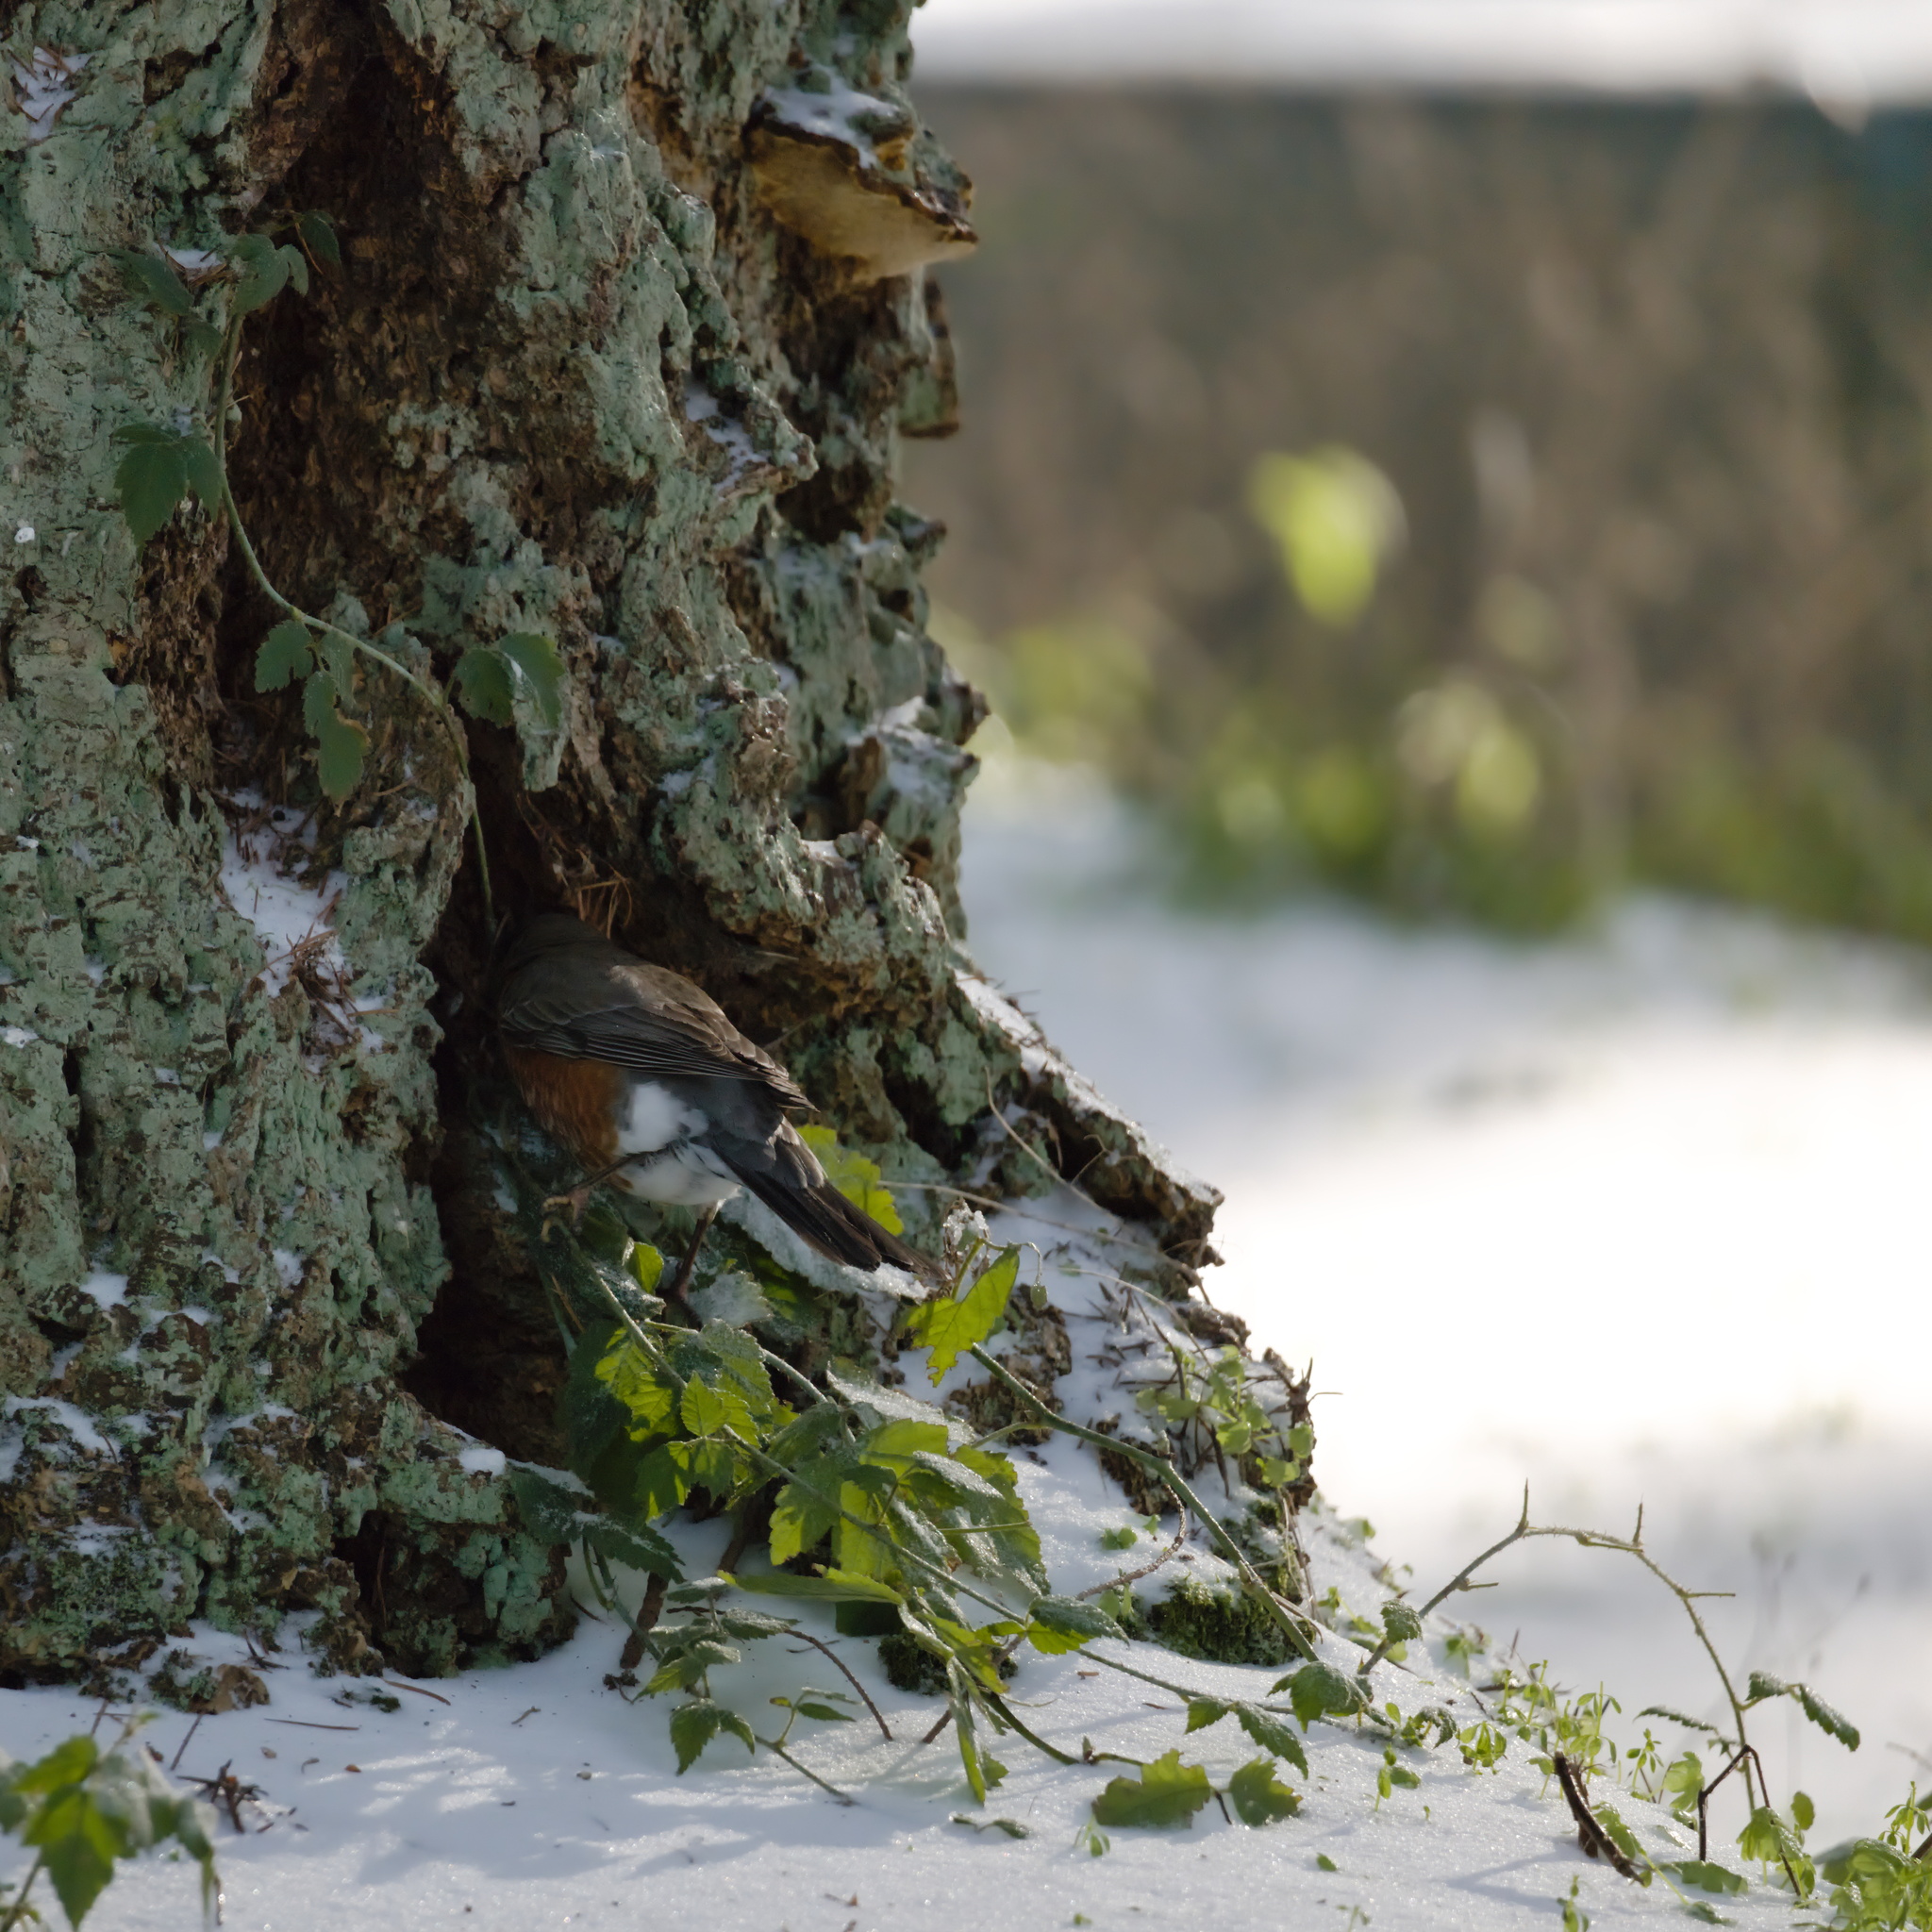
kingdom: Animalia
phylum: Chordata
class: Aves
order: Passeriformes
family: Turdidae
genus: Turdus
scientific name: Turdus migratorius
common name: American robin
